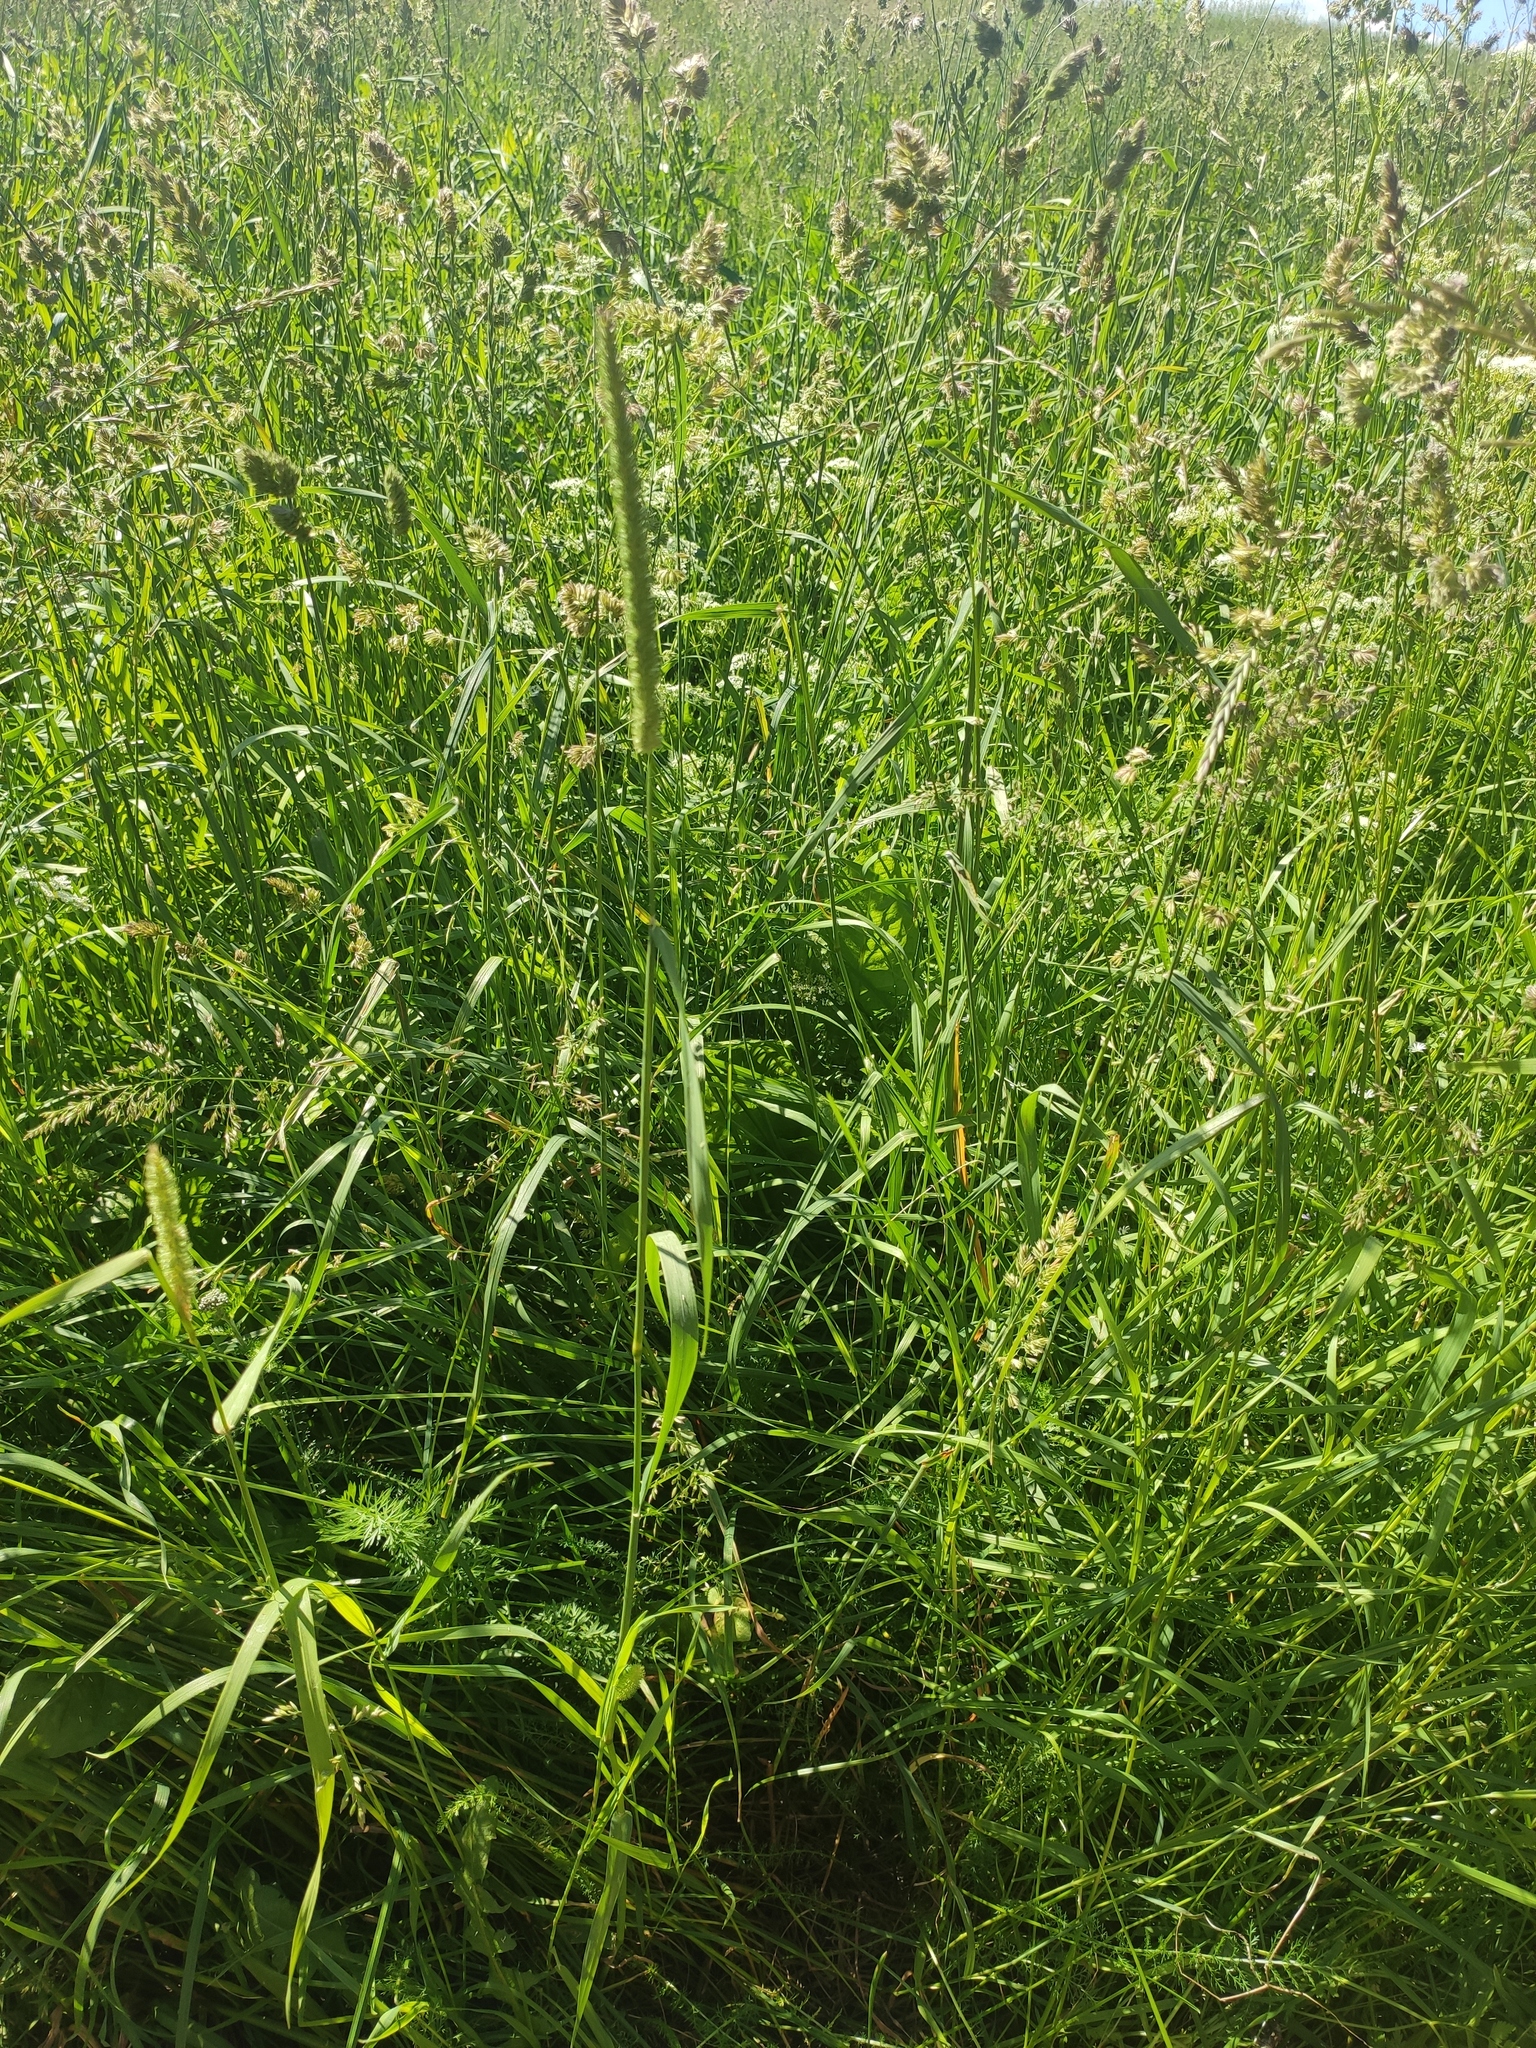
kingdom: Plantae
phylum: Tracheophyta
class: Liliopsida
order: Poales
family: Poaceae
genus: Phleum
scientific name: Phleum pratense
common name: Timothy grass
